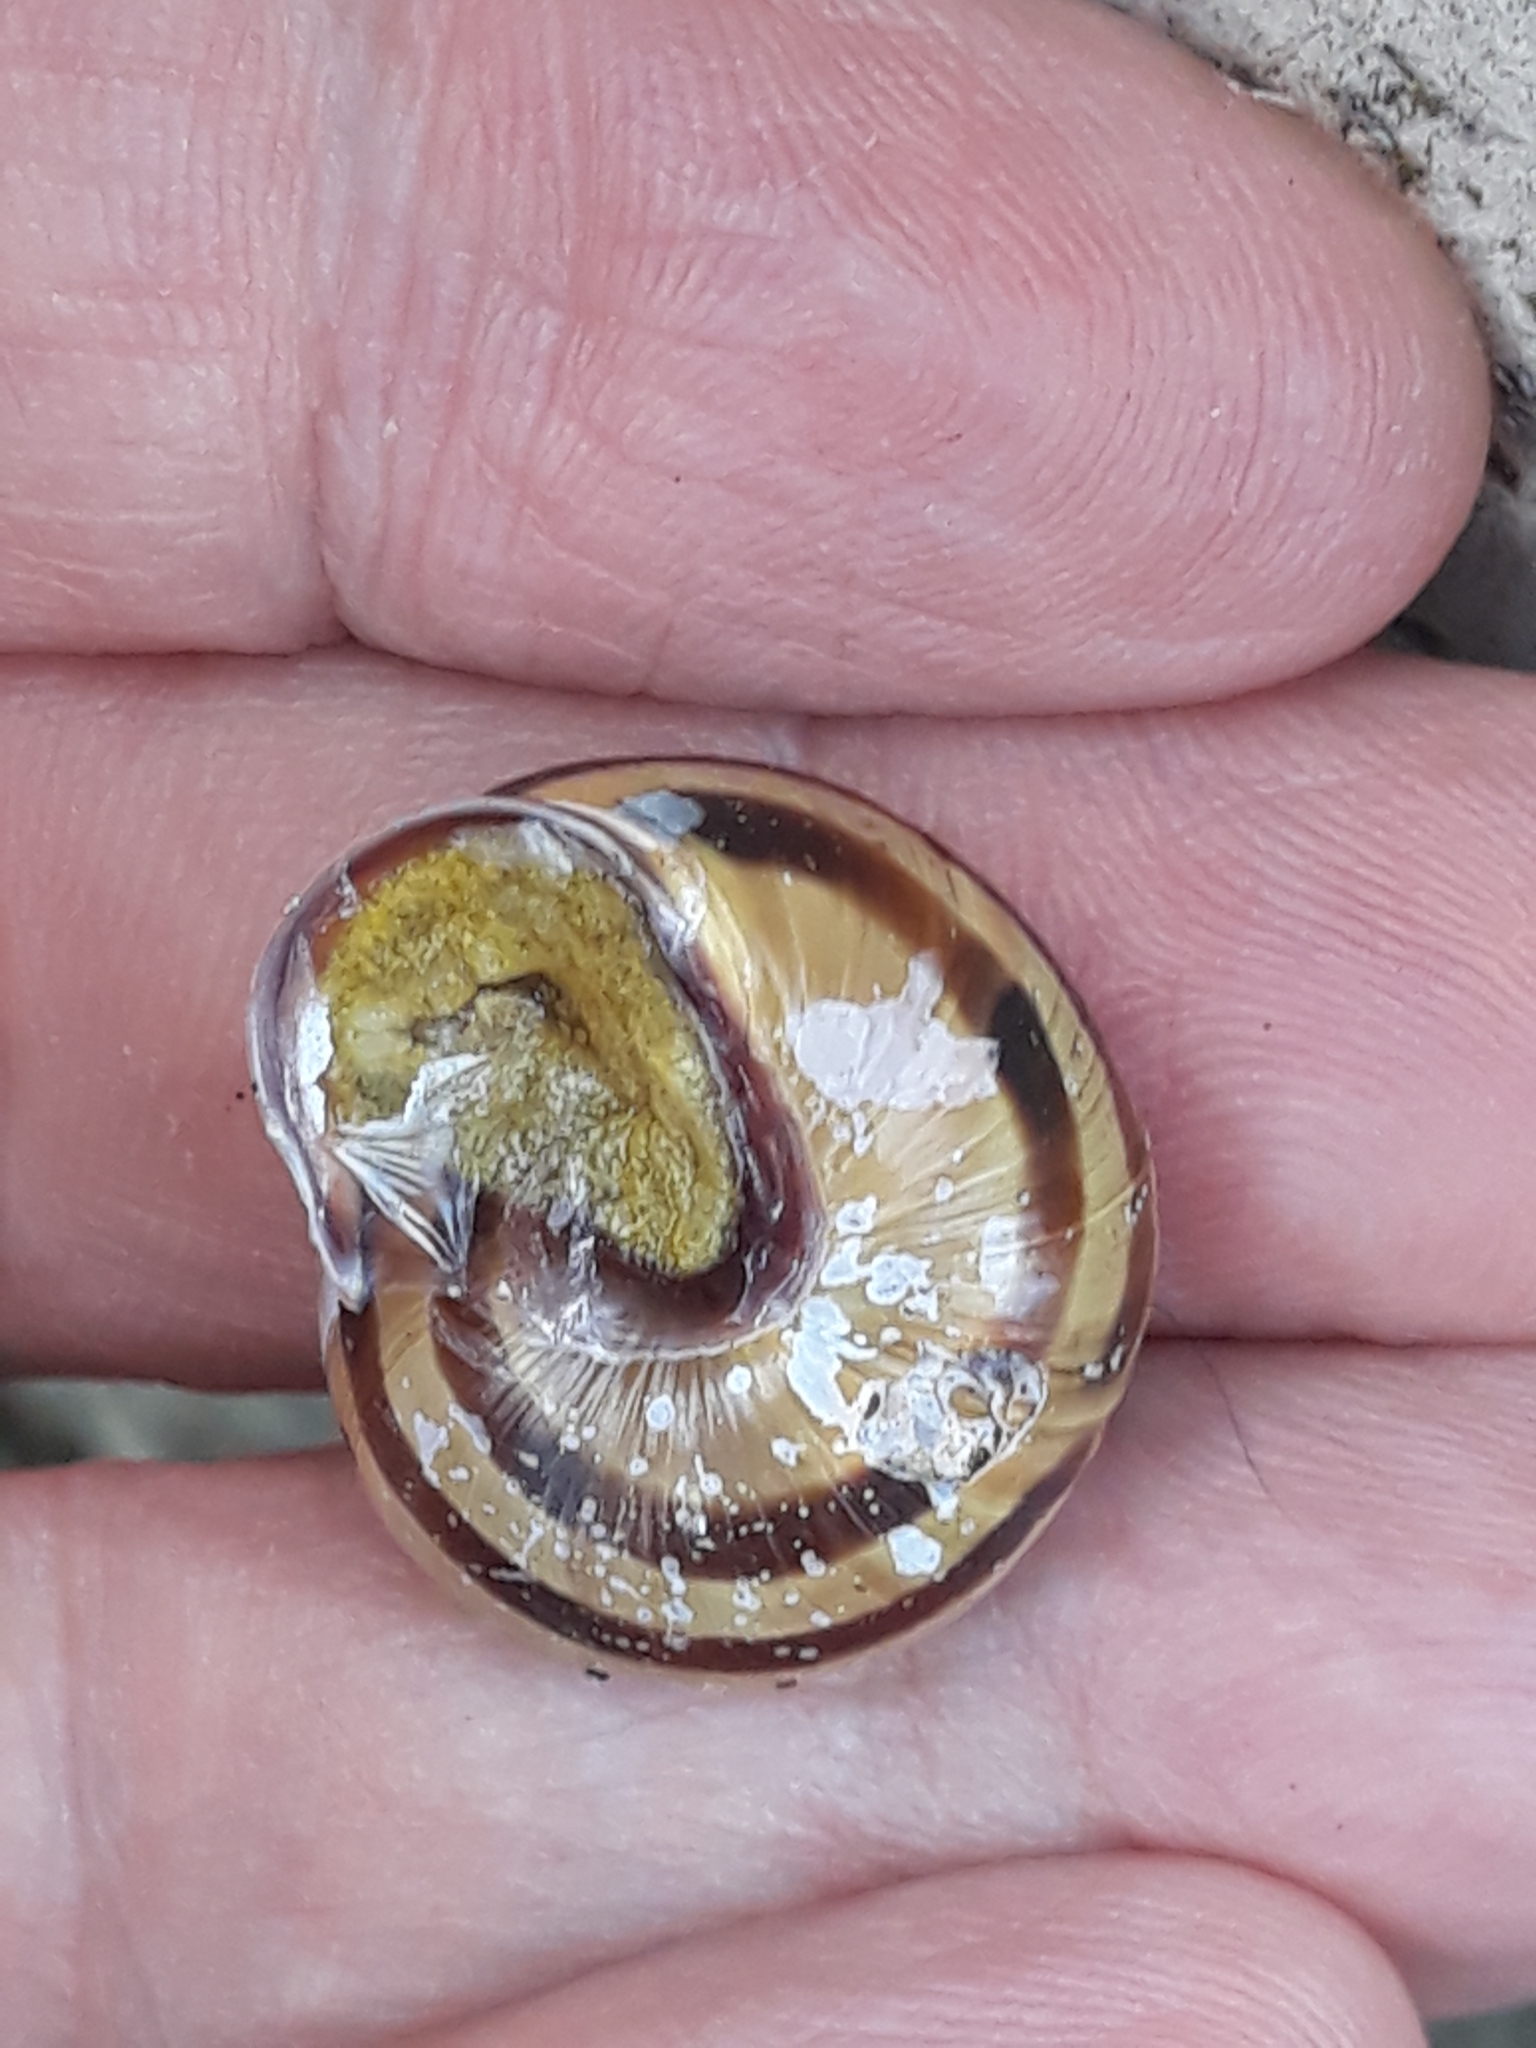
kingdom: Animalia
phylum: Mollusca
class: Gastropoda
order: Stylommatophora
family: Helicidae
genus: Cepaea
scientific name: Cepaea nemoralis
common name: Grovesnail
